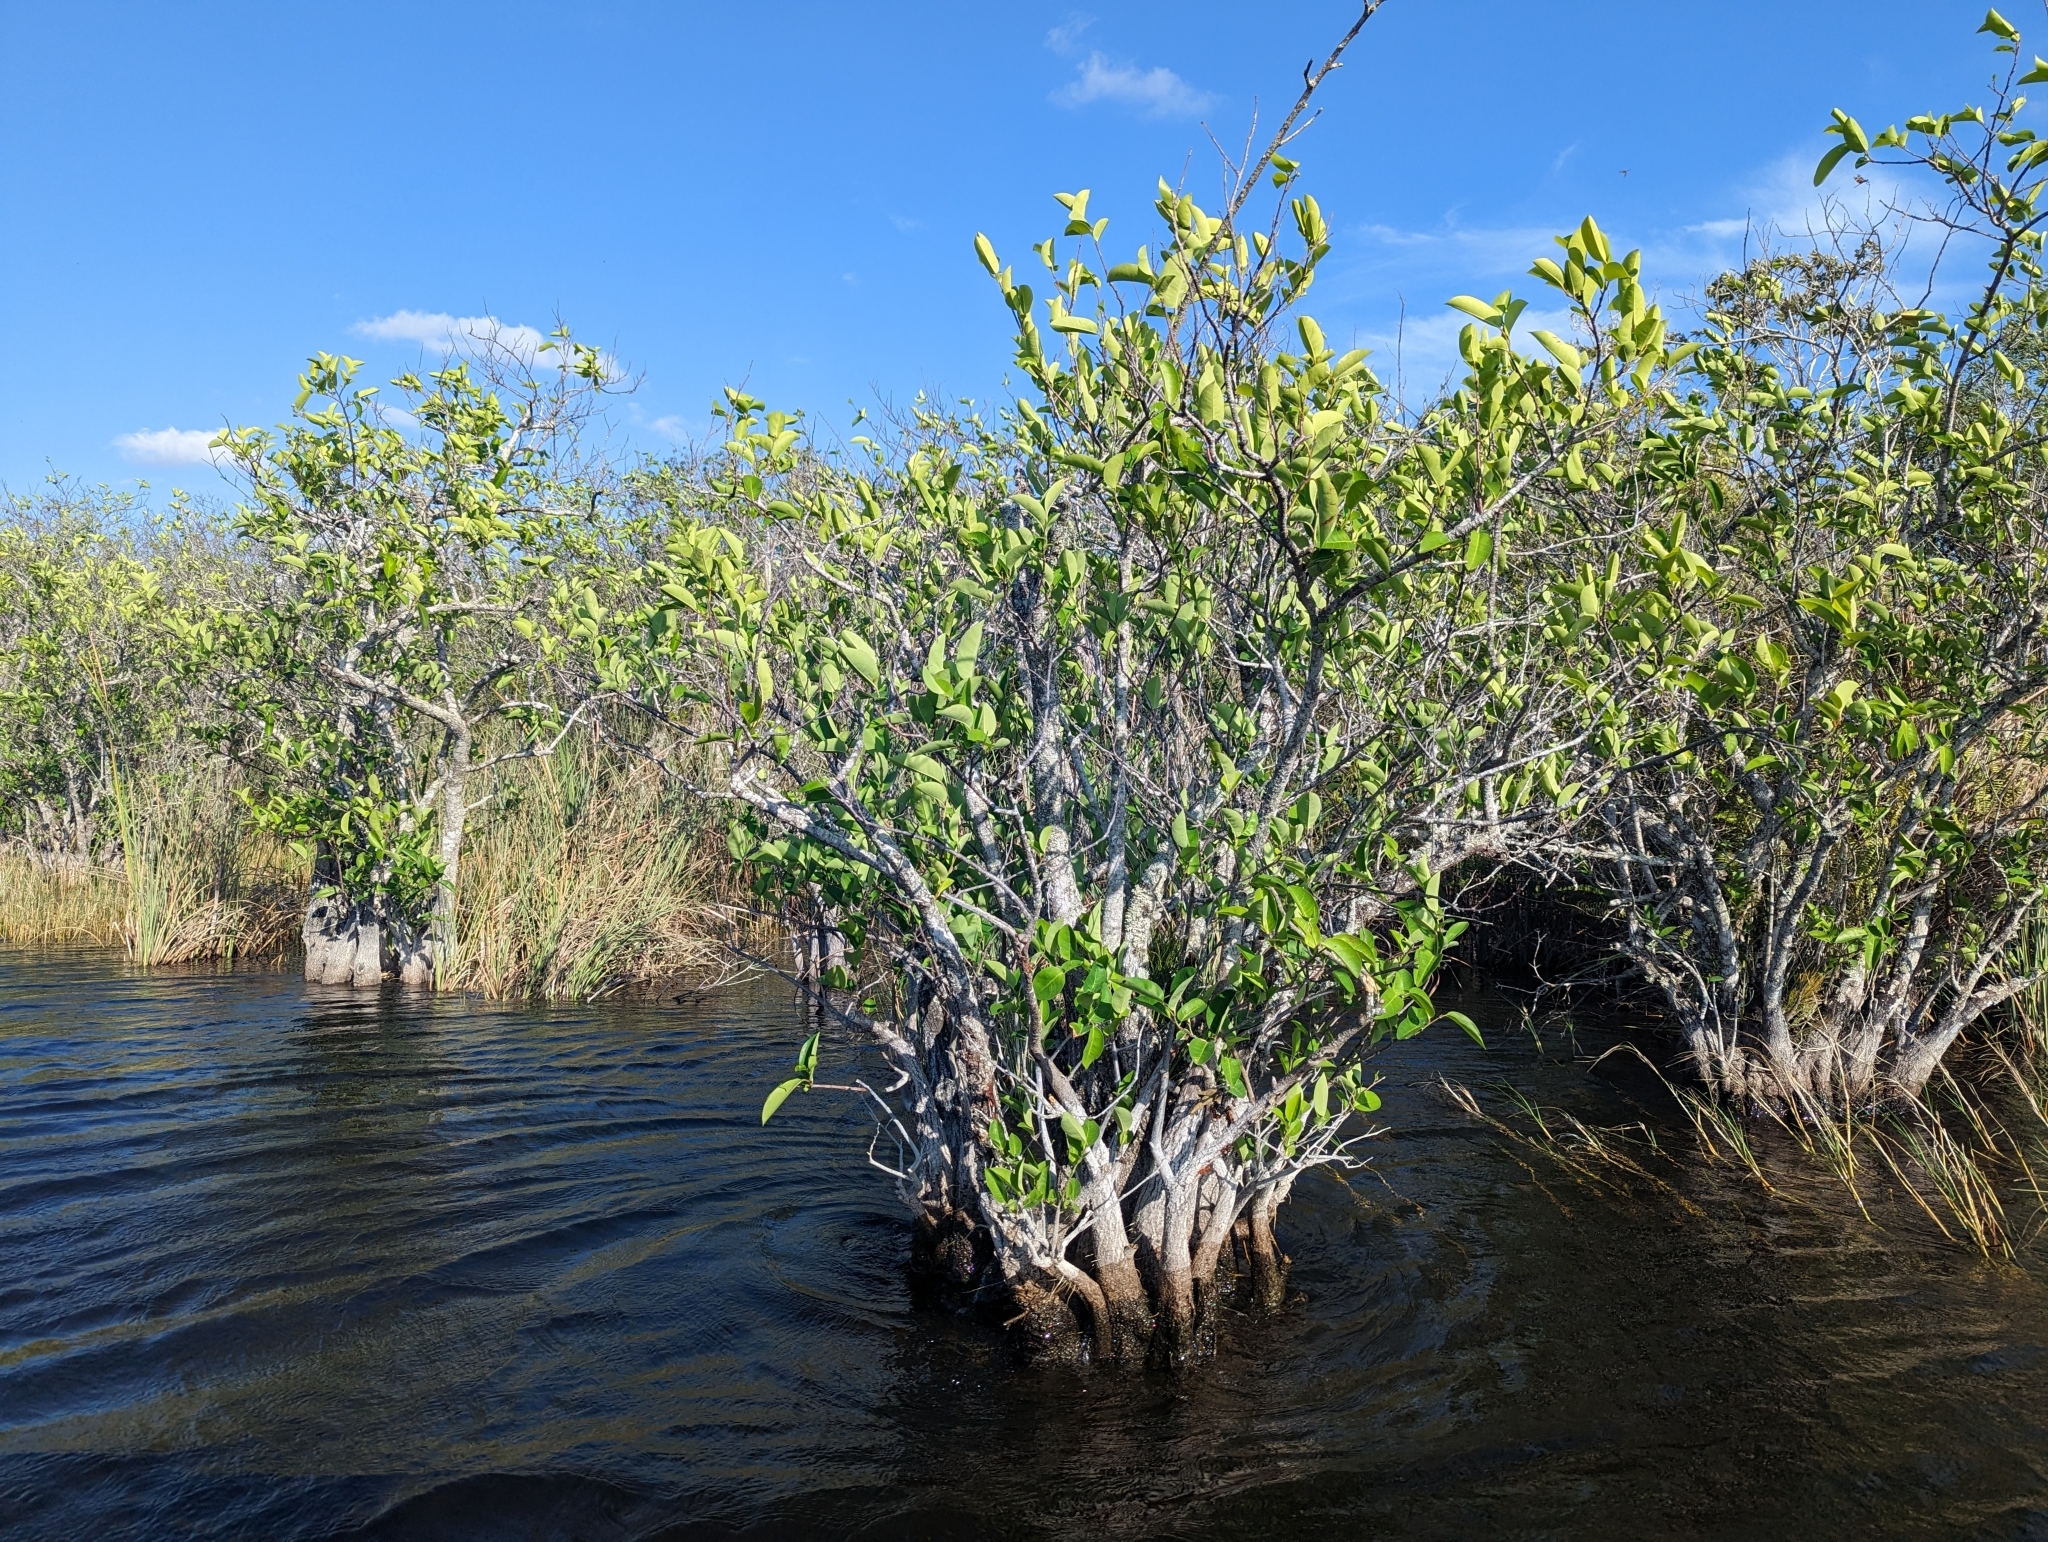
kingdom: Plantae
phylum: Tracheophyta
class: Magnoliopsida
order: Magnoliales
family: Annonaceae
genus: Annona
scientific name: Annona glabra
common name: Monkey apple
